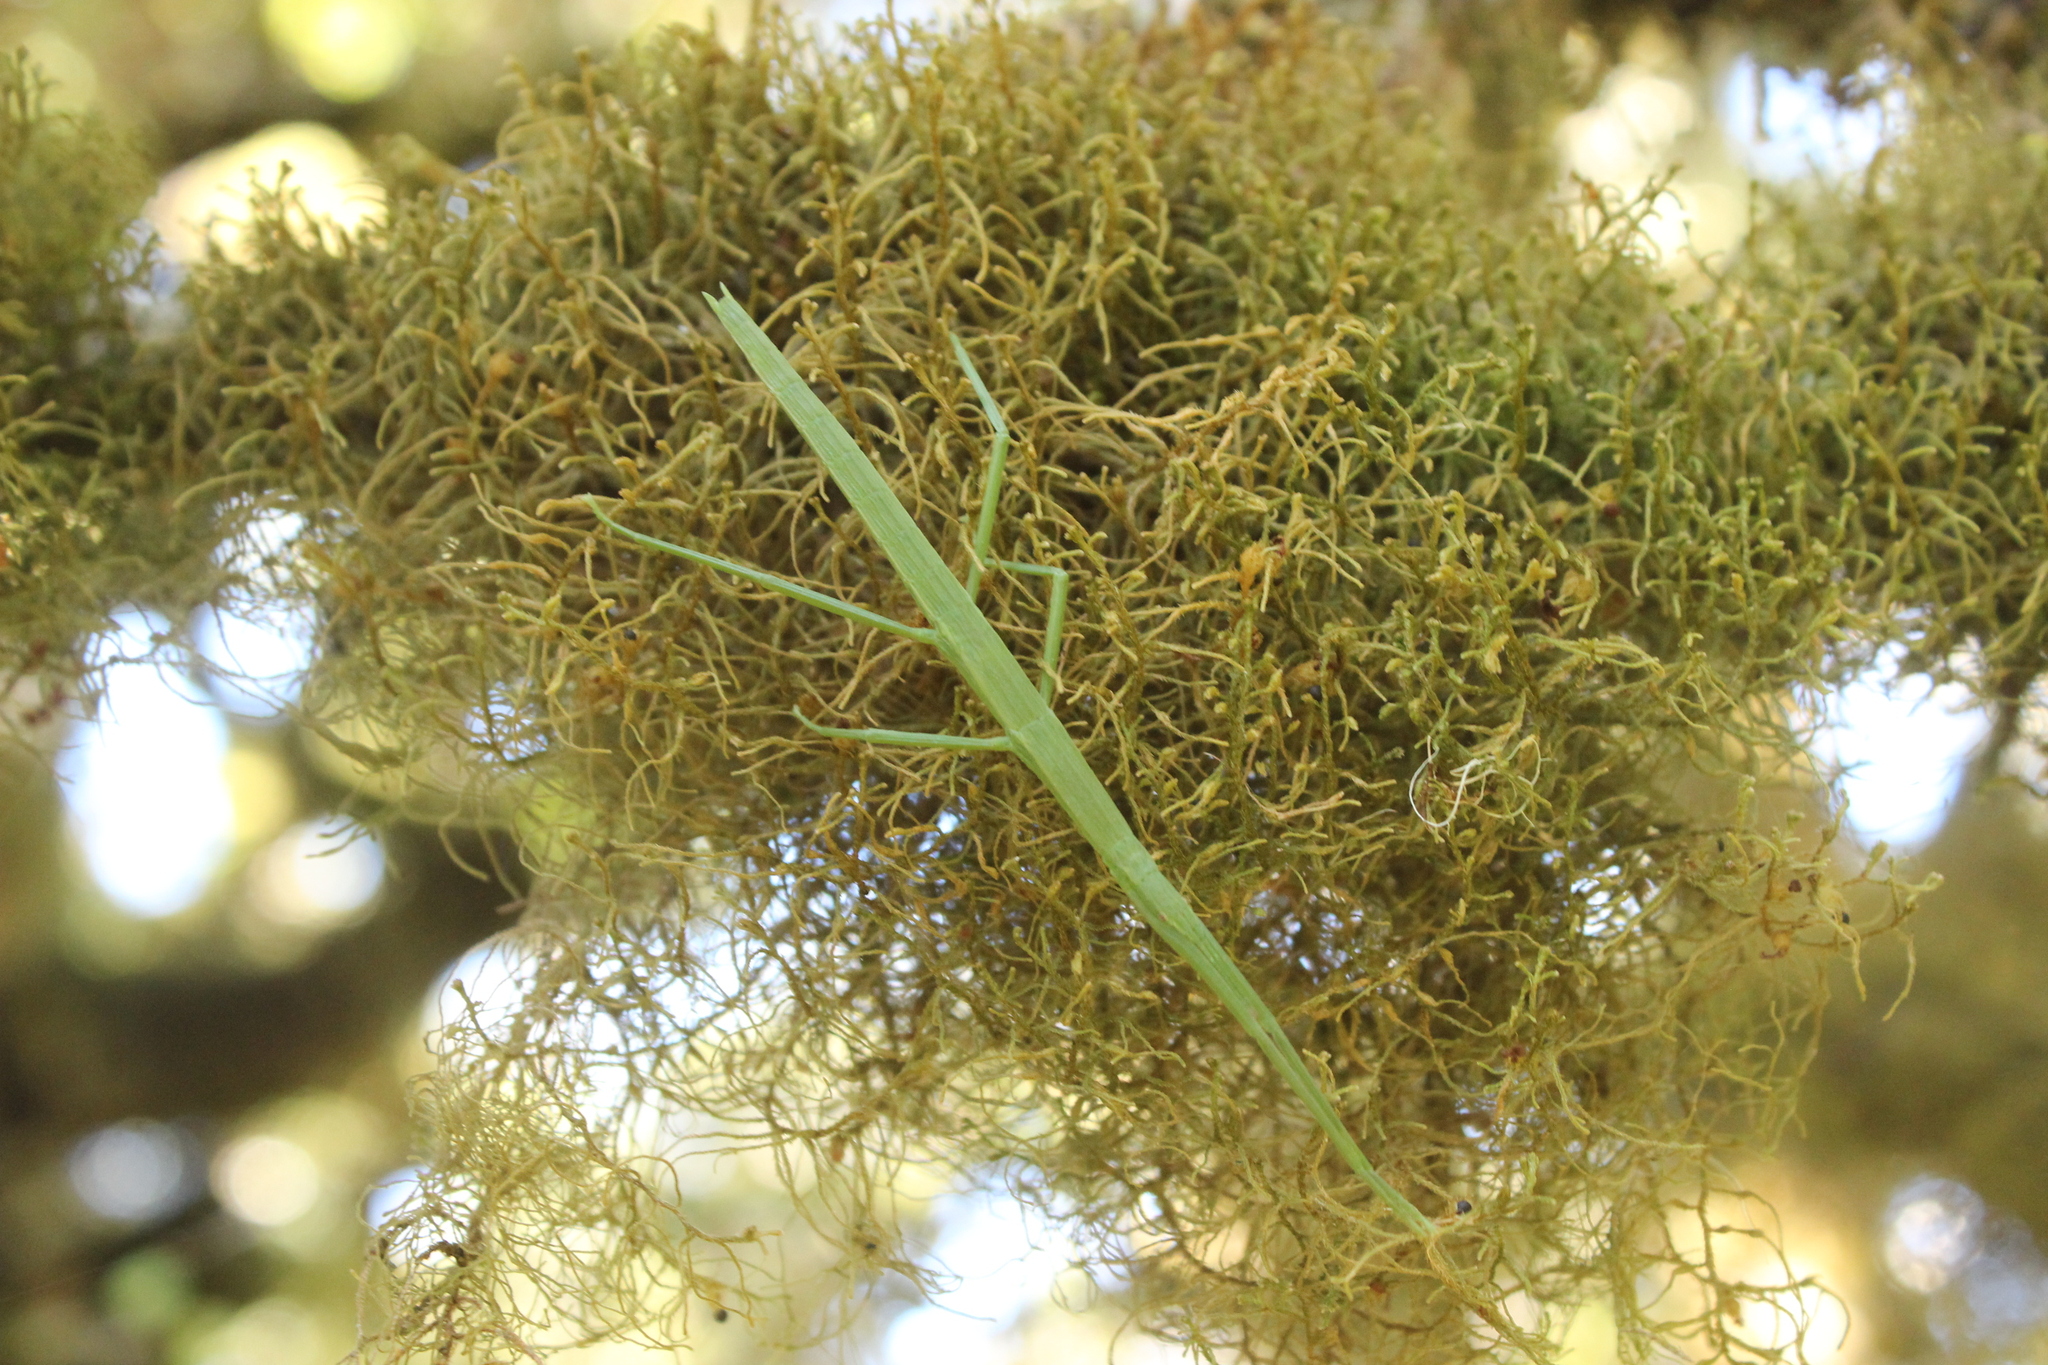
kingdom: Animalia
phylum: Arthropoda
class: Insecta
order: Phasmida
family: Phasmatidae
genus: Clitarchus
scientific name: Clitarchus hookeri
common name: Smooth stick insect
